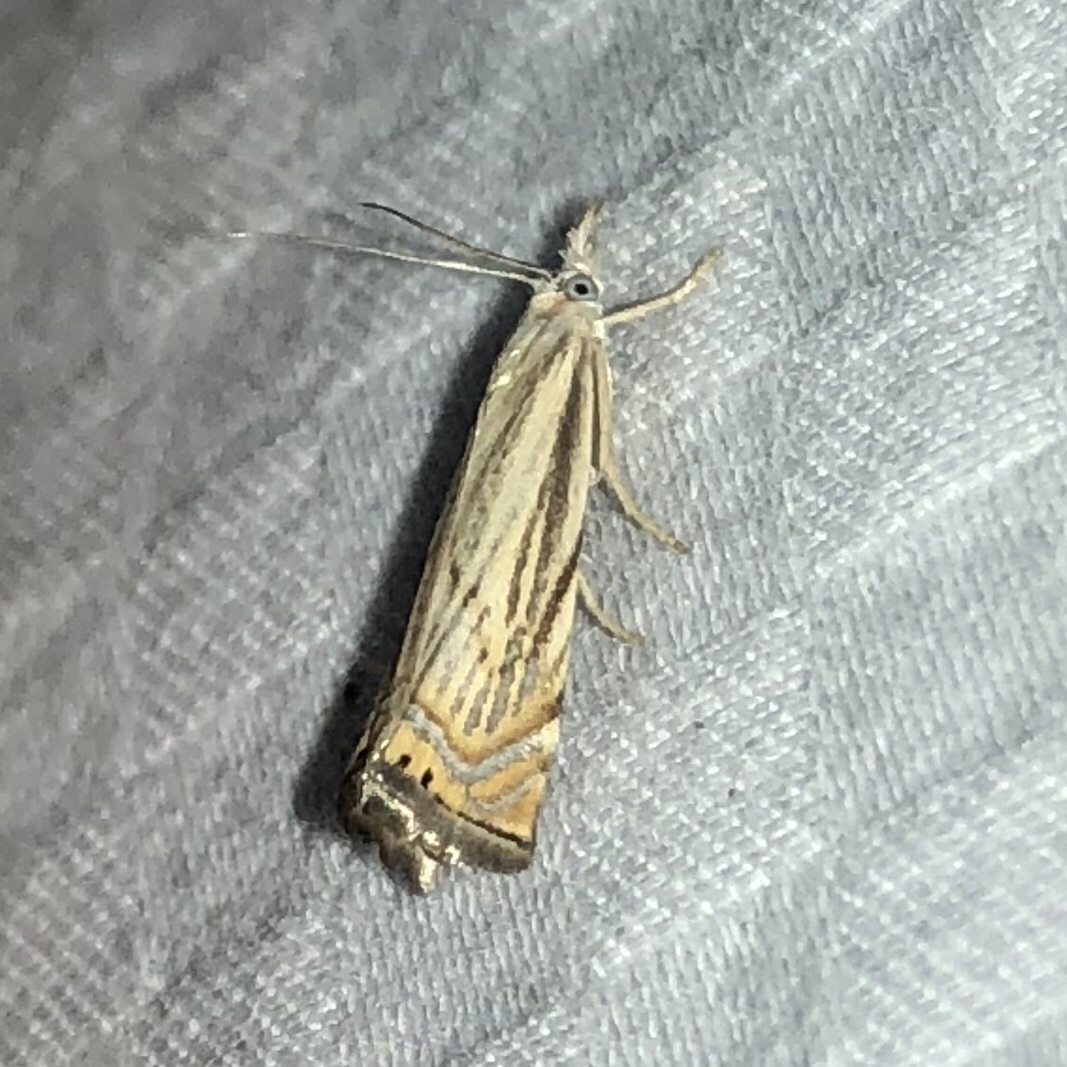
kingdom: Animalia
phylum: Arthropoda
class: Insecta
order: Lepidoptera
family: Crambidae
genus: Chrysoteuchia
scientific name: Chrysoteuchia topiarius
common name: Topiary grass-veneer
